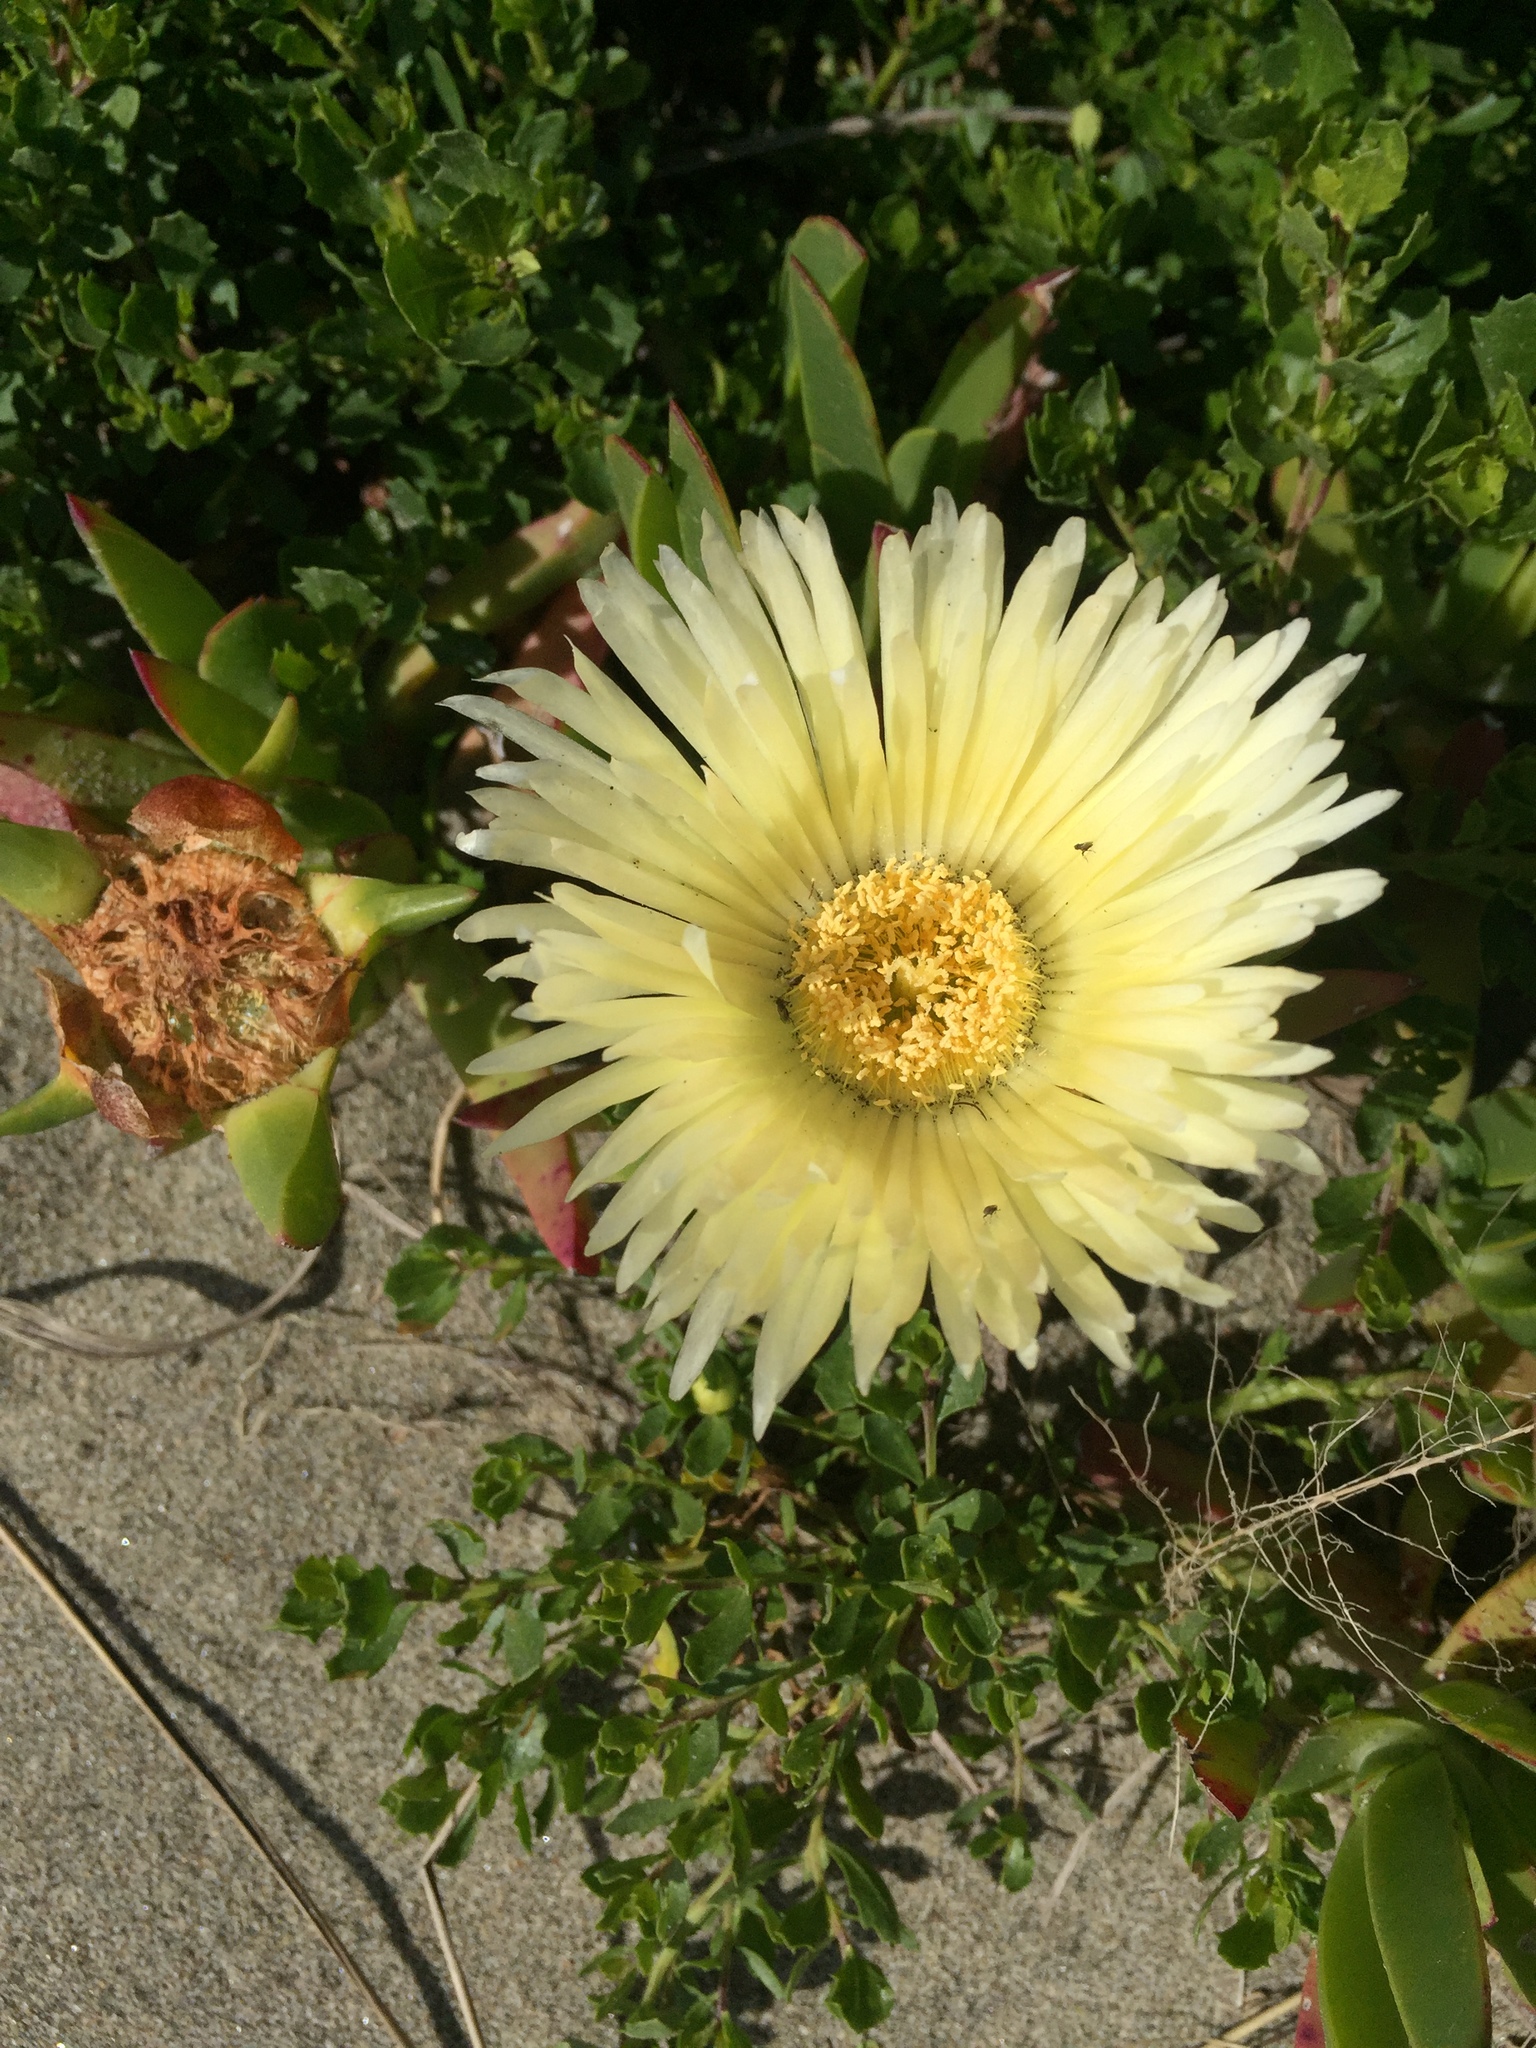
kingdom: Plantae
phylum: Tracheophyta
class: Magnoliopsida
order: Caryophyllales
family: Aizoaceae
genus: Carpobrotus
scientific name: Carpobrotus edulis
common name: Hottentot-fig
